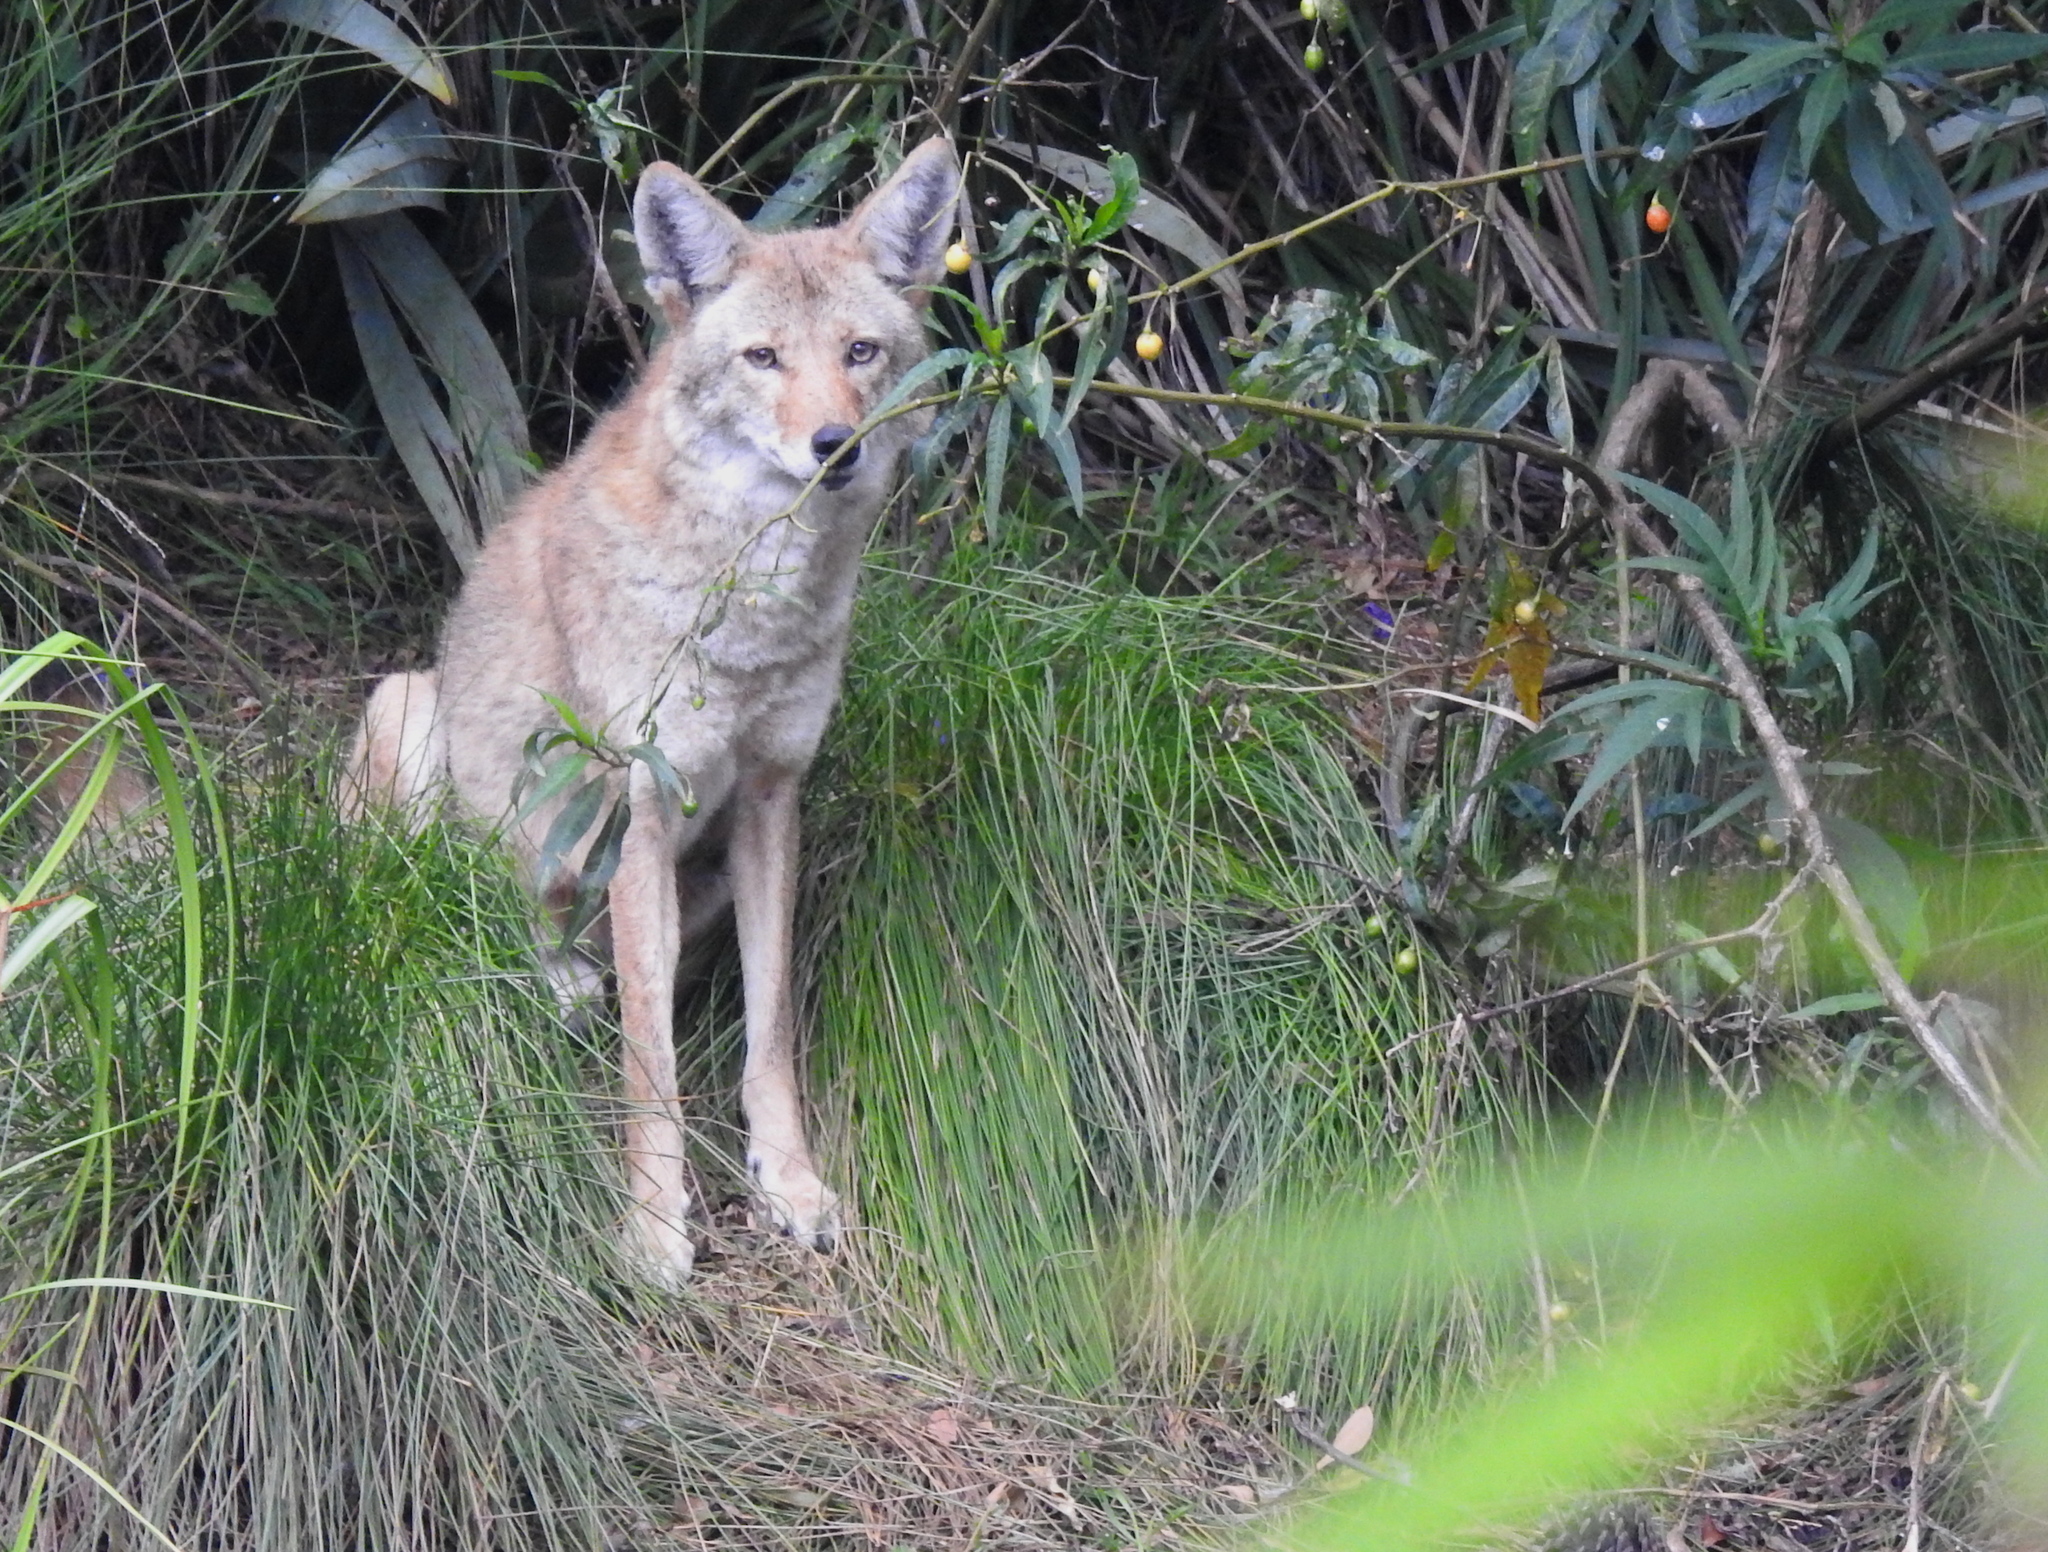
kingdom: Animalia
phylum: Chordata
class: Mammalia
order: Carnivora
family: Canidae
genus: Canis
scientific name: Canis latrans
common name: Coyote
